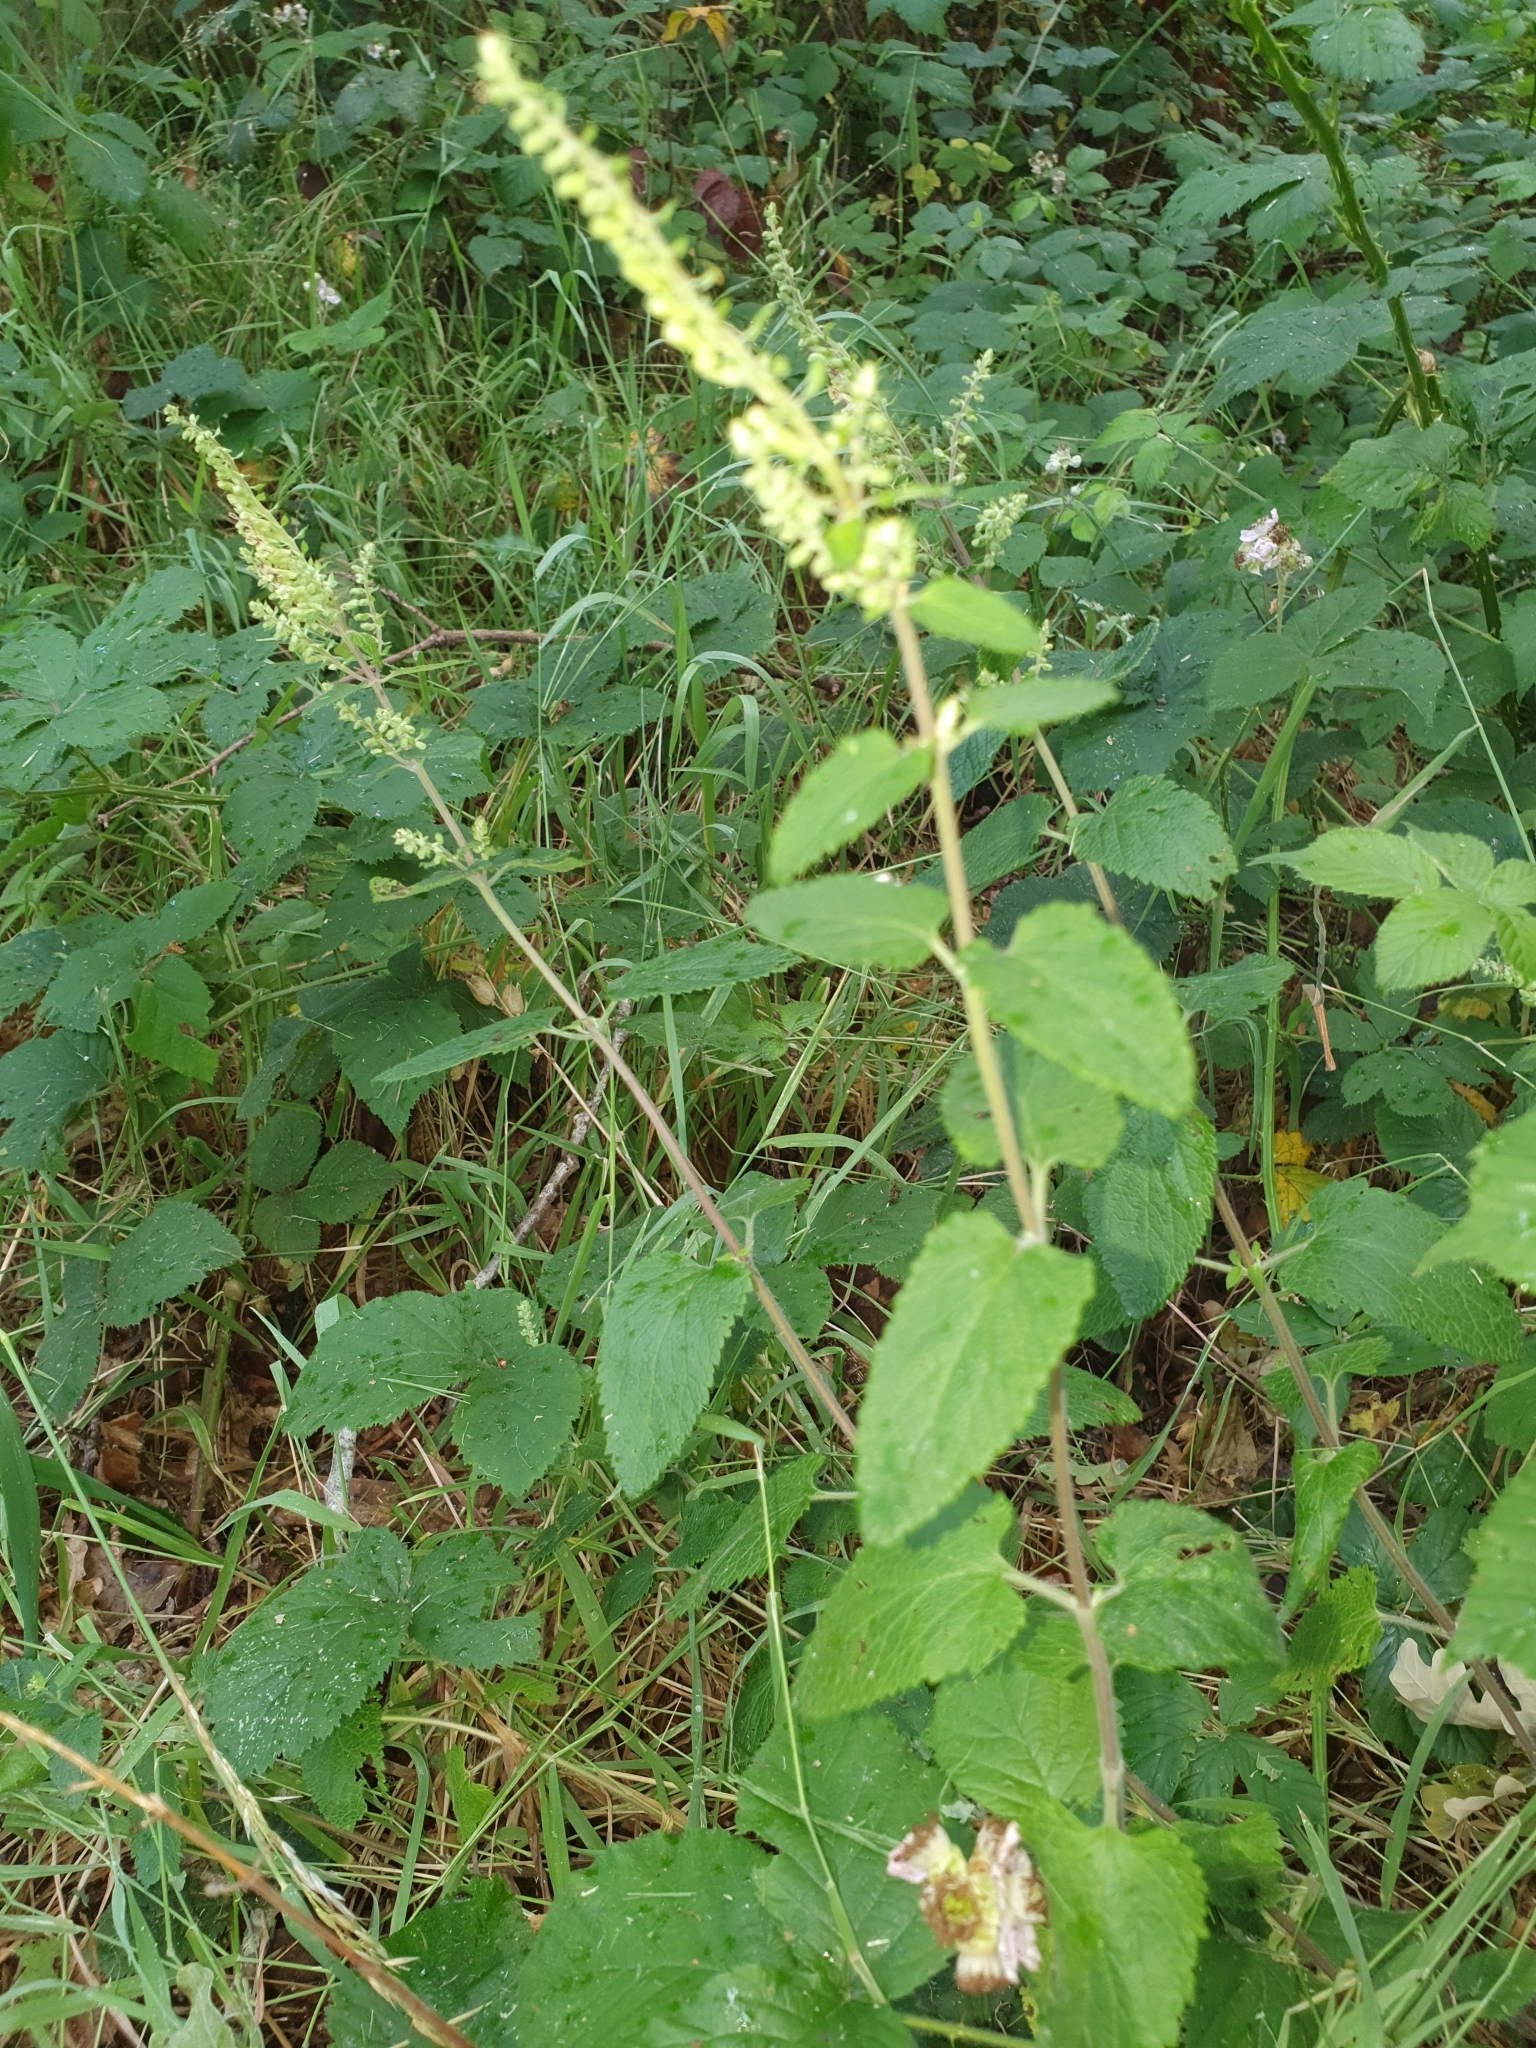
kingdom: Plantae
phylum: Tracheophyta
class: Magnoliopsida
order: Lamiales
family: Lamiaceae
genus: Teucrium
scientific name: Teucrium scorodonia
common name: Woodland germander
